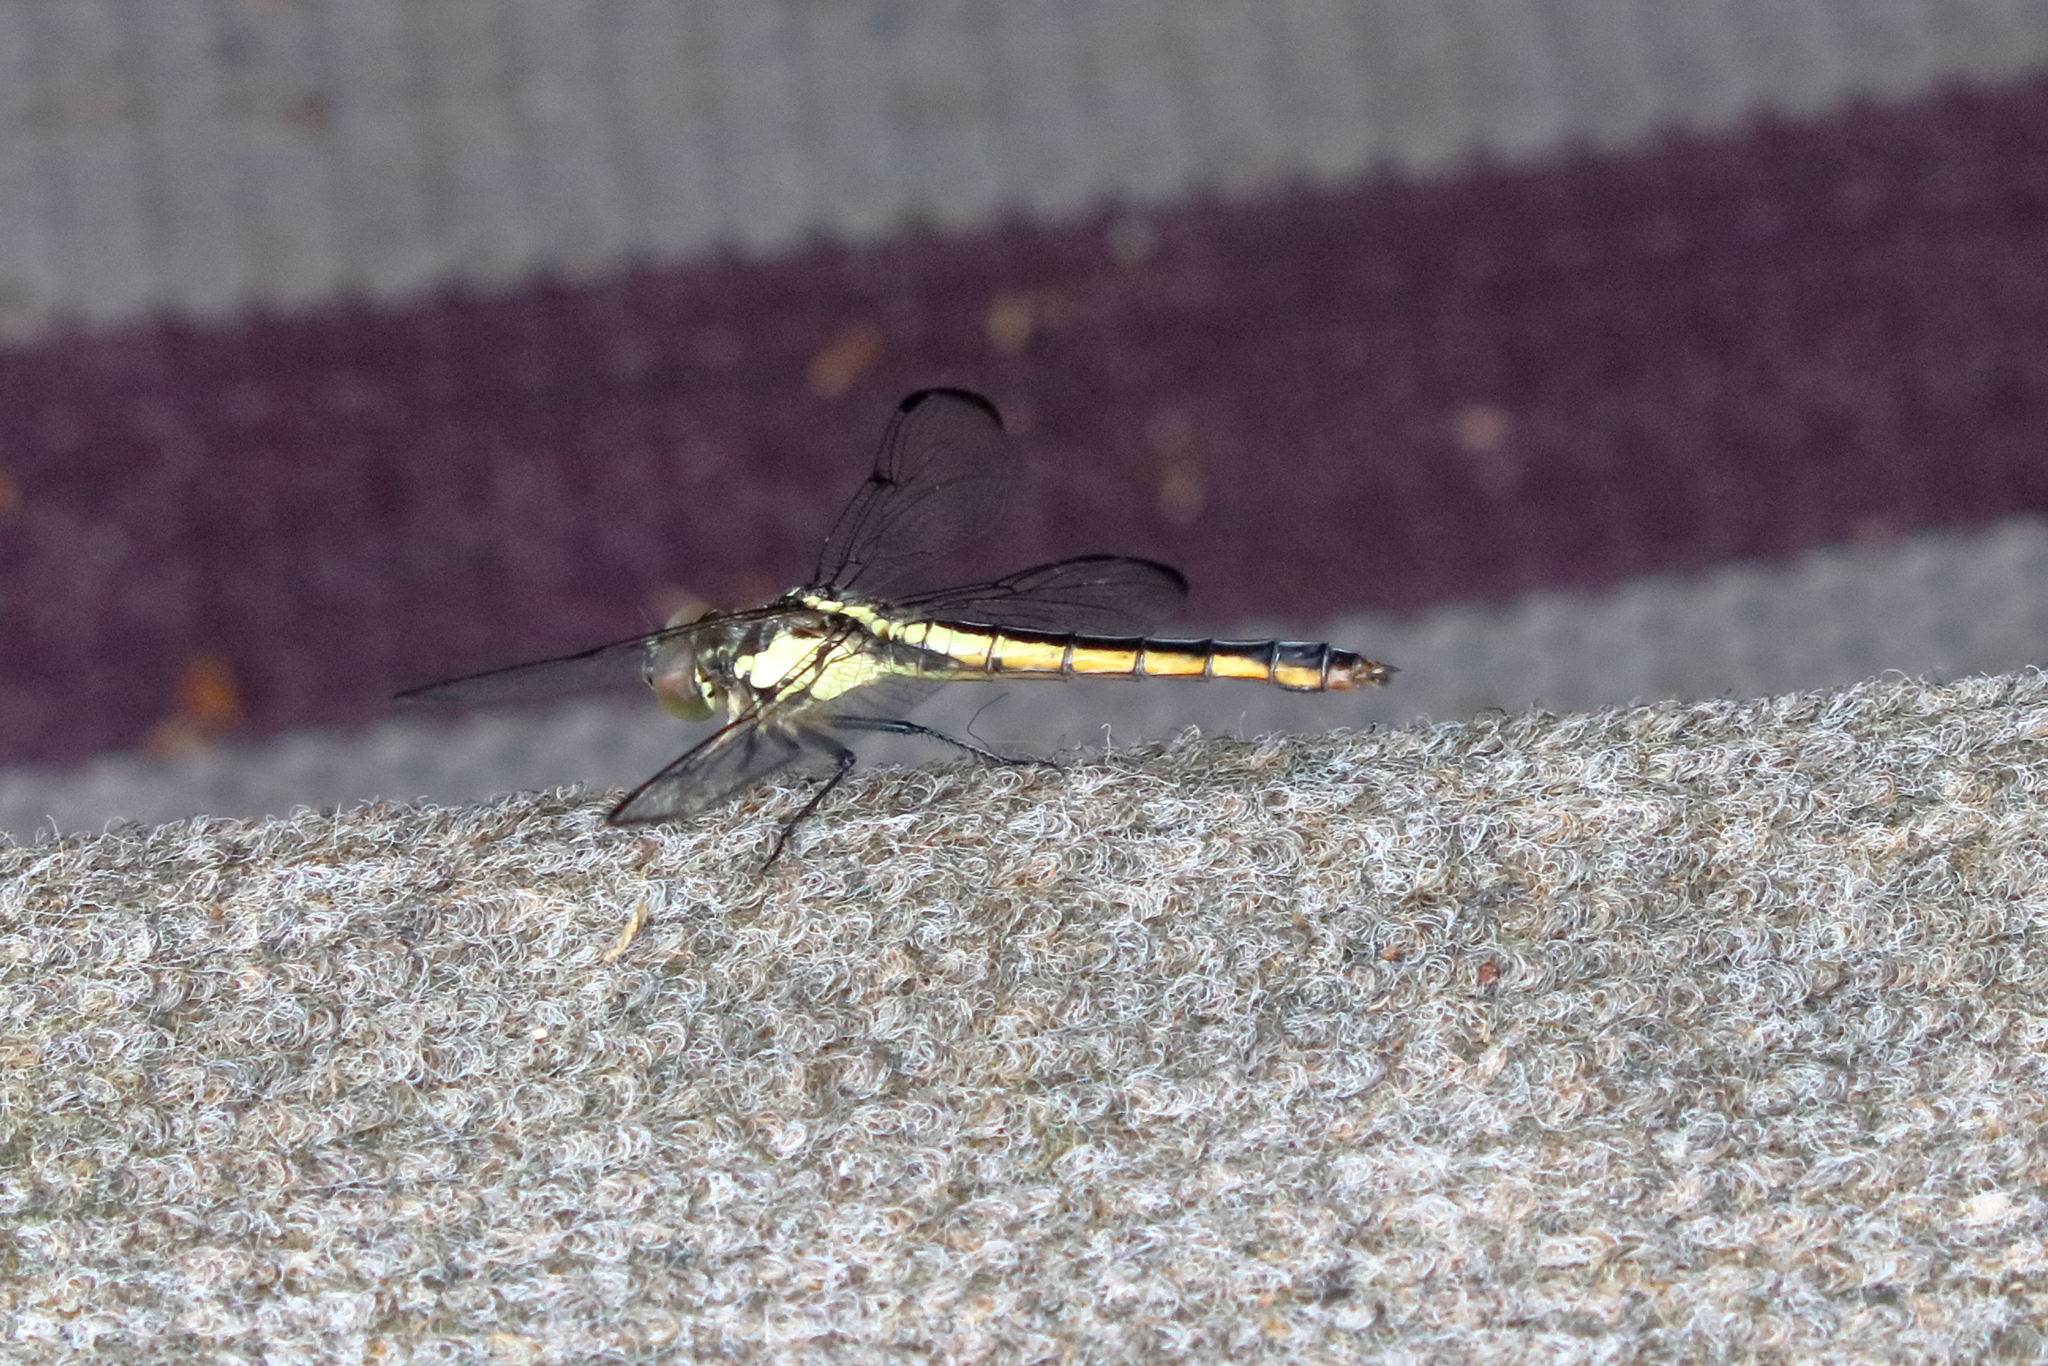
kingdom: Animalia
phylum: Arthropoda
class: Insecta
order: Odonata
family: Libellulidae
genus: Libellula
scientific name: Libellula vibrans
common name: Great blue skimmer
